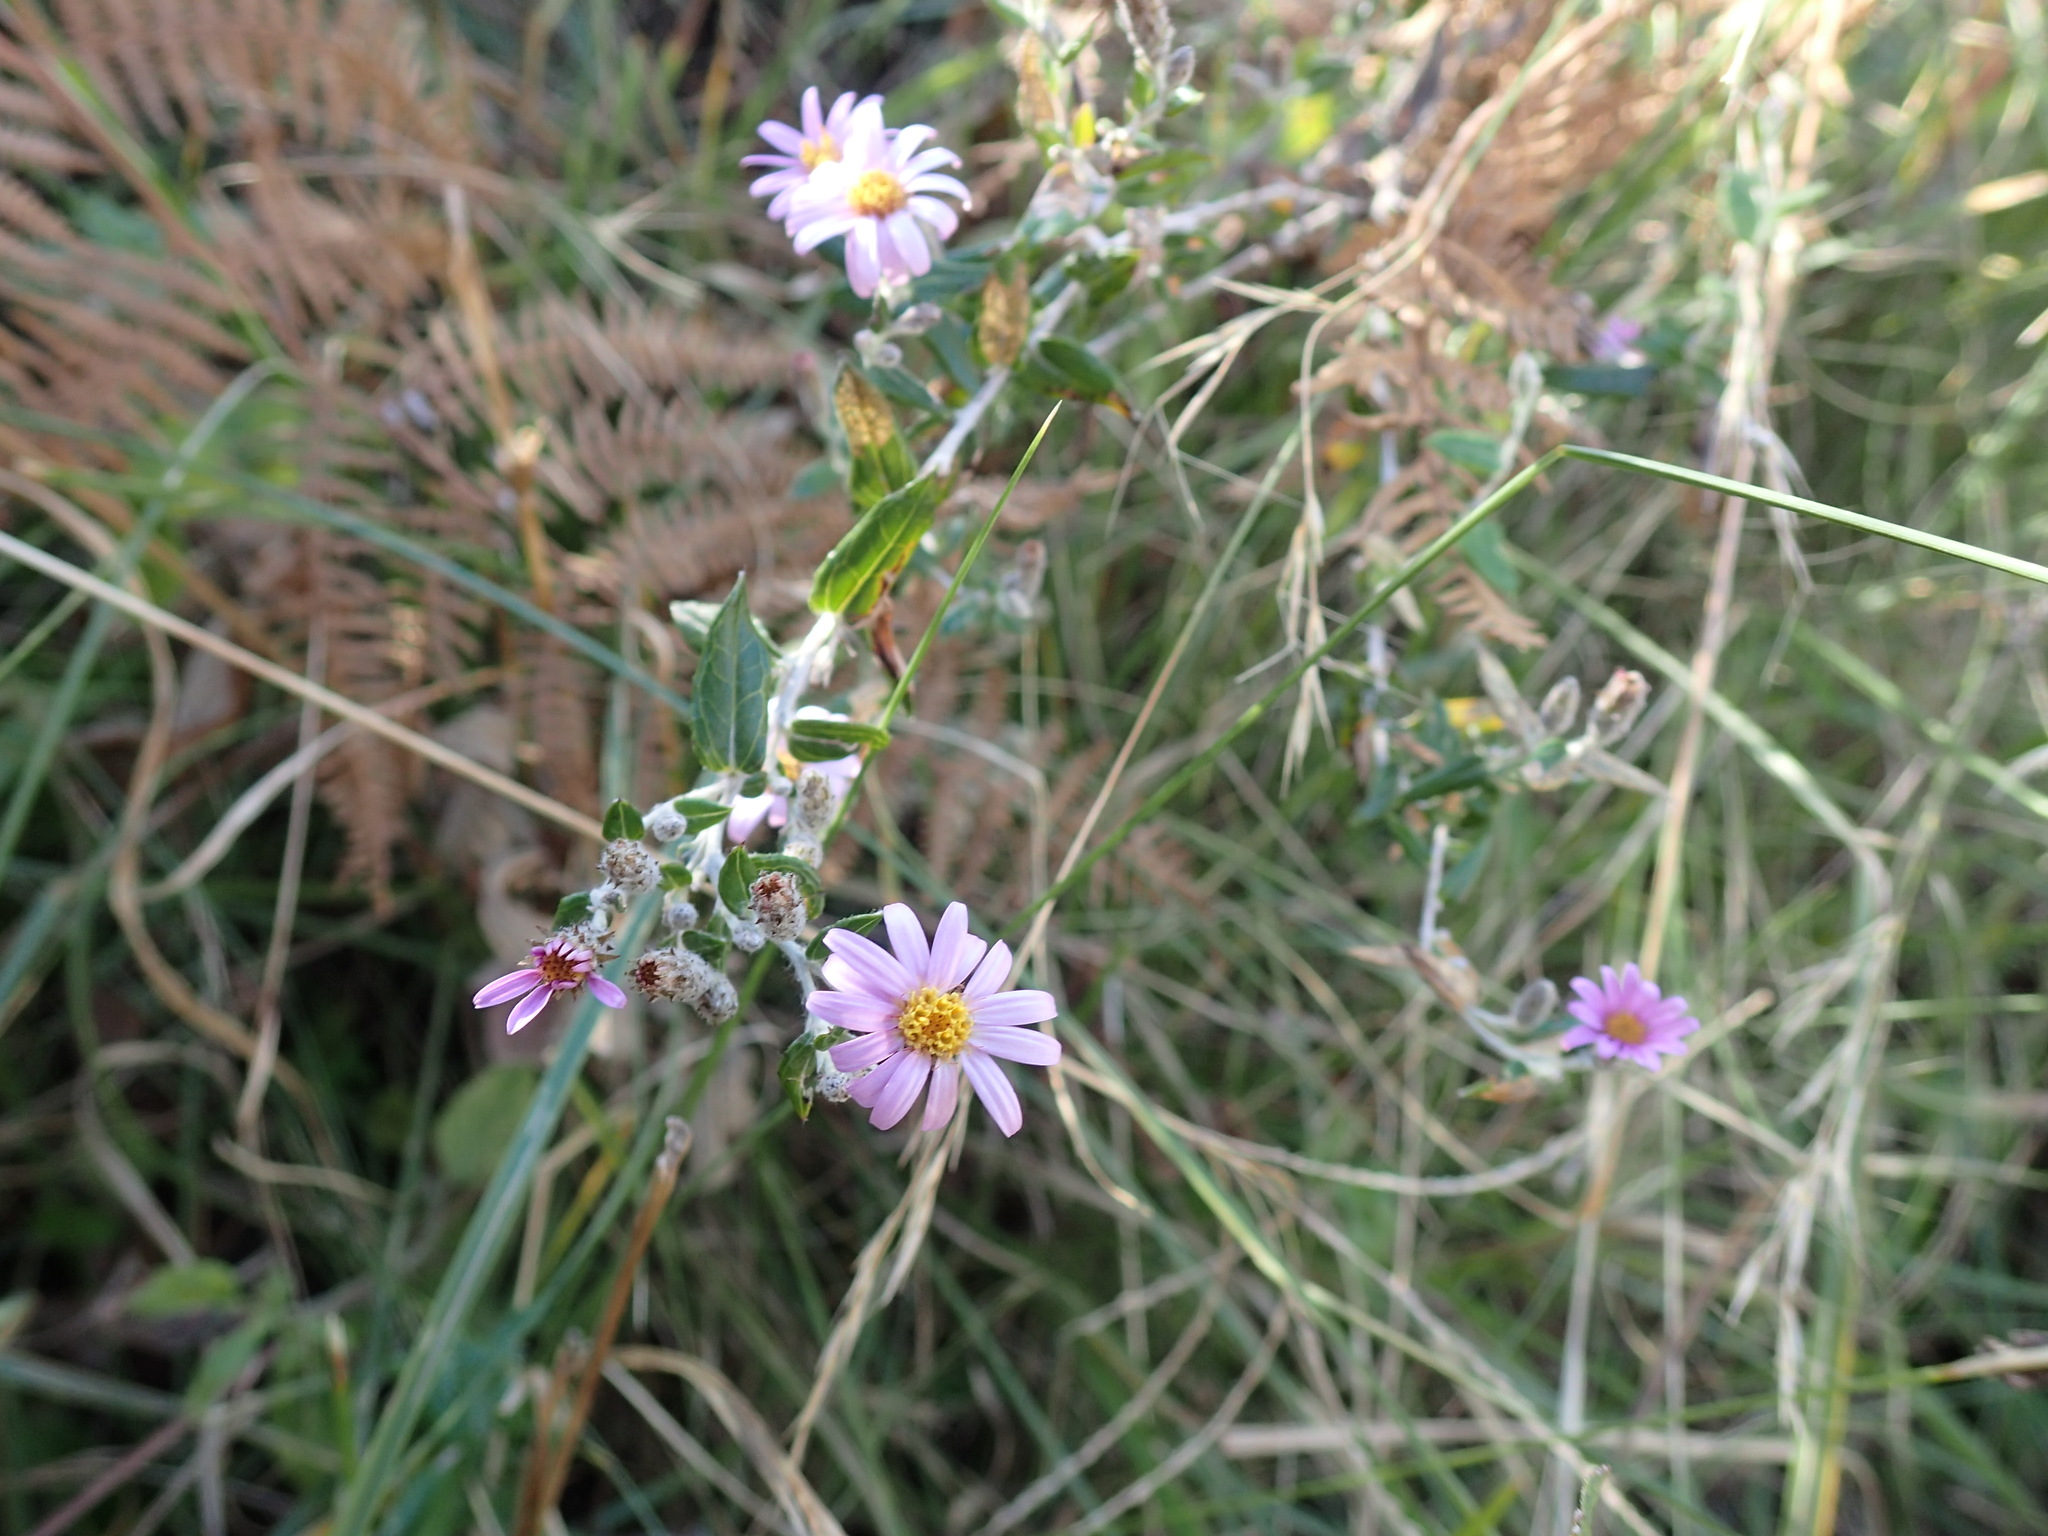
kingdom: Plantae
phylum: Tracheophyta
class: Magnoliopsida
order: Asterales
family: Asteraceae
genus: Athrixia
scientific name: Athrixia phylicoides
